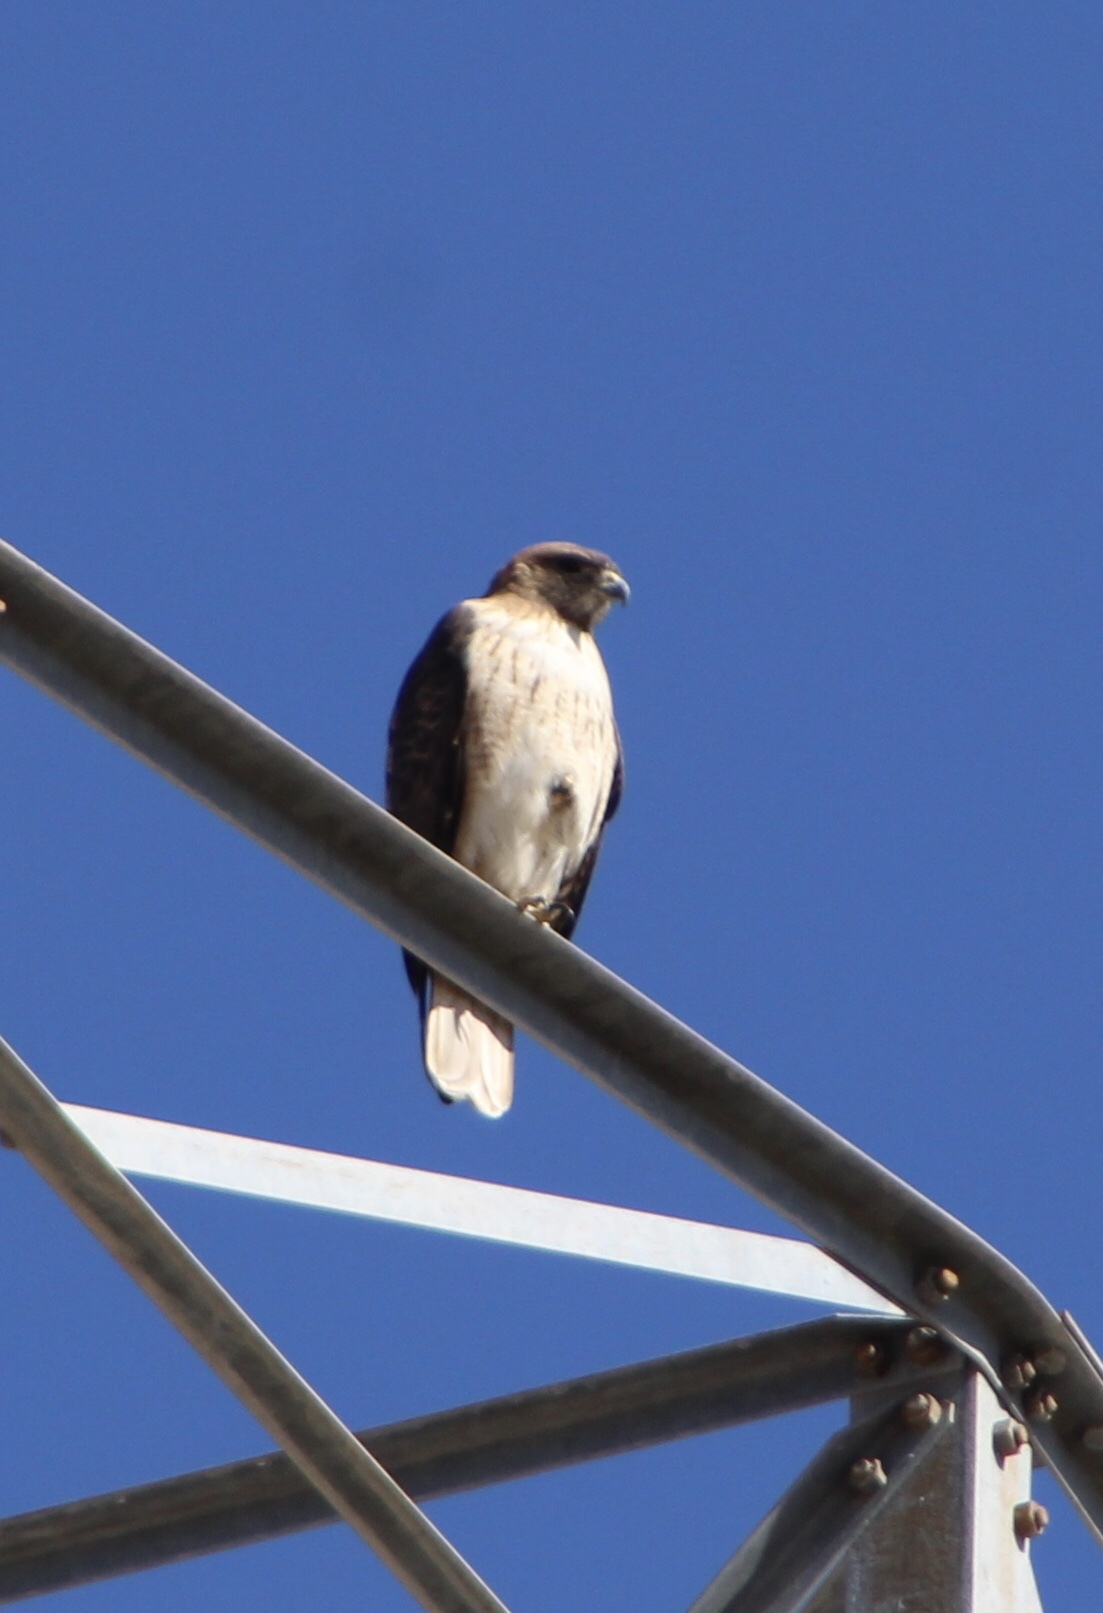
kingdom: Animalia
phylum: Chordata
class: Aves
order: Accipitriformes
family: Accipitridae
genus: Buteo
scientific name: Buteo jamaicensis
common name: Red-tailed hawk
